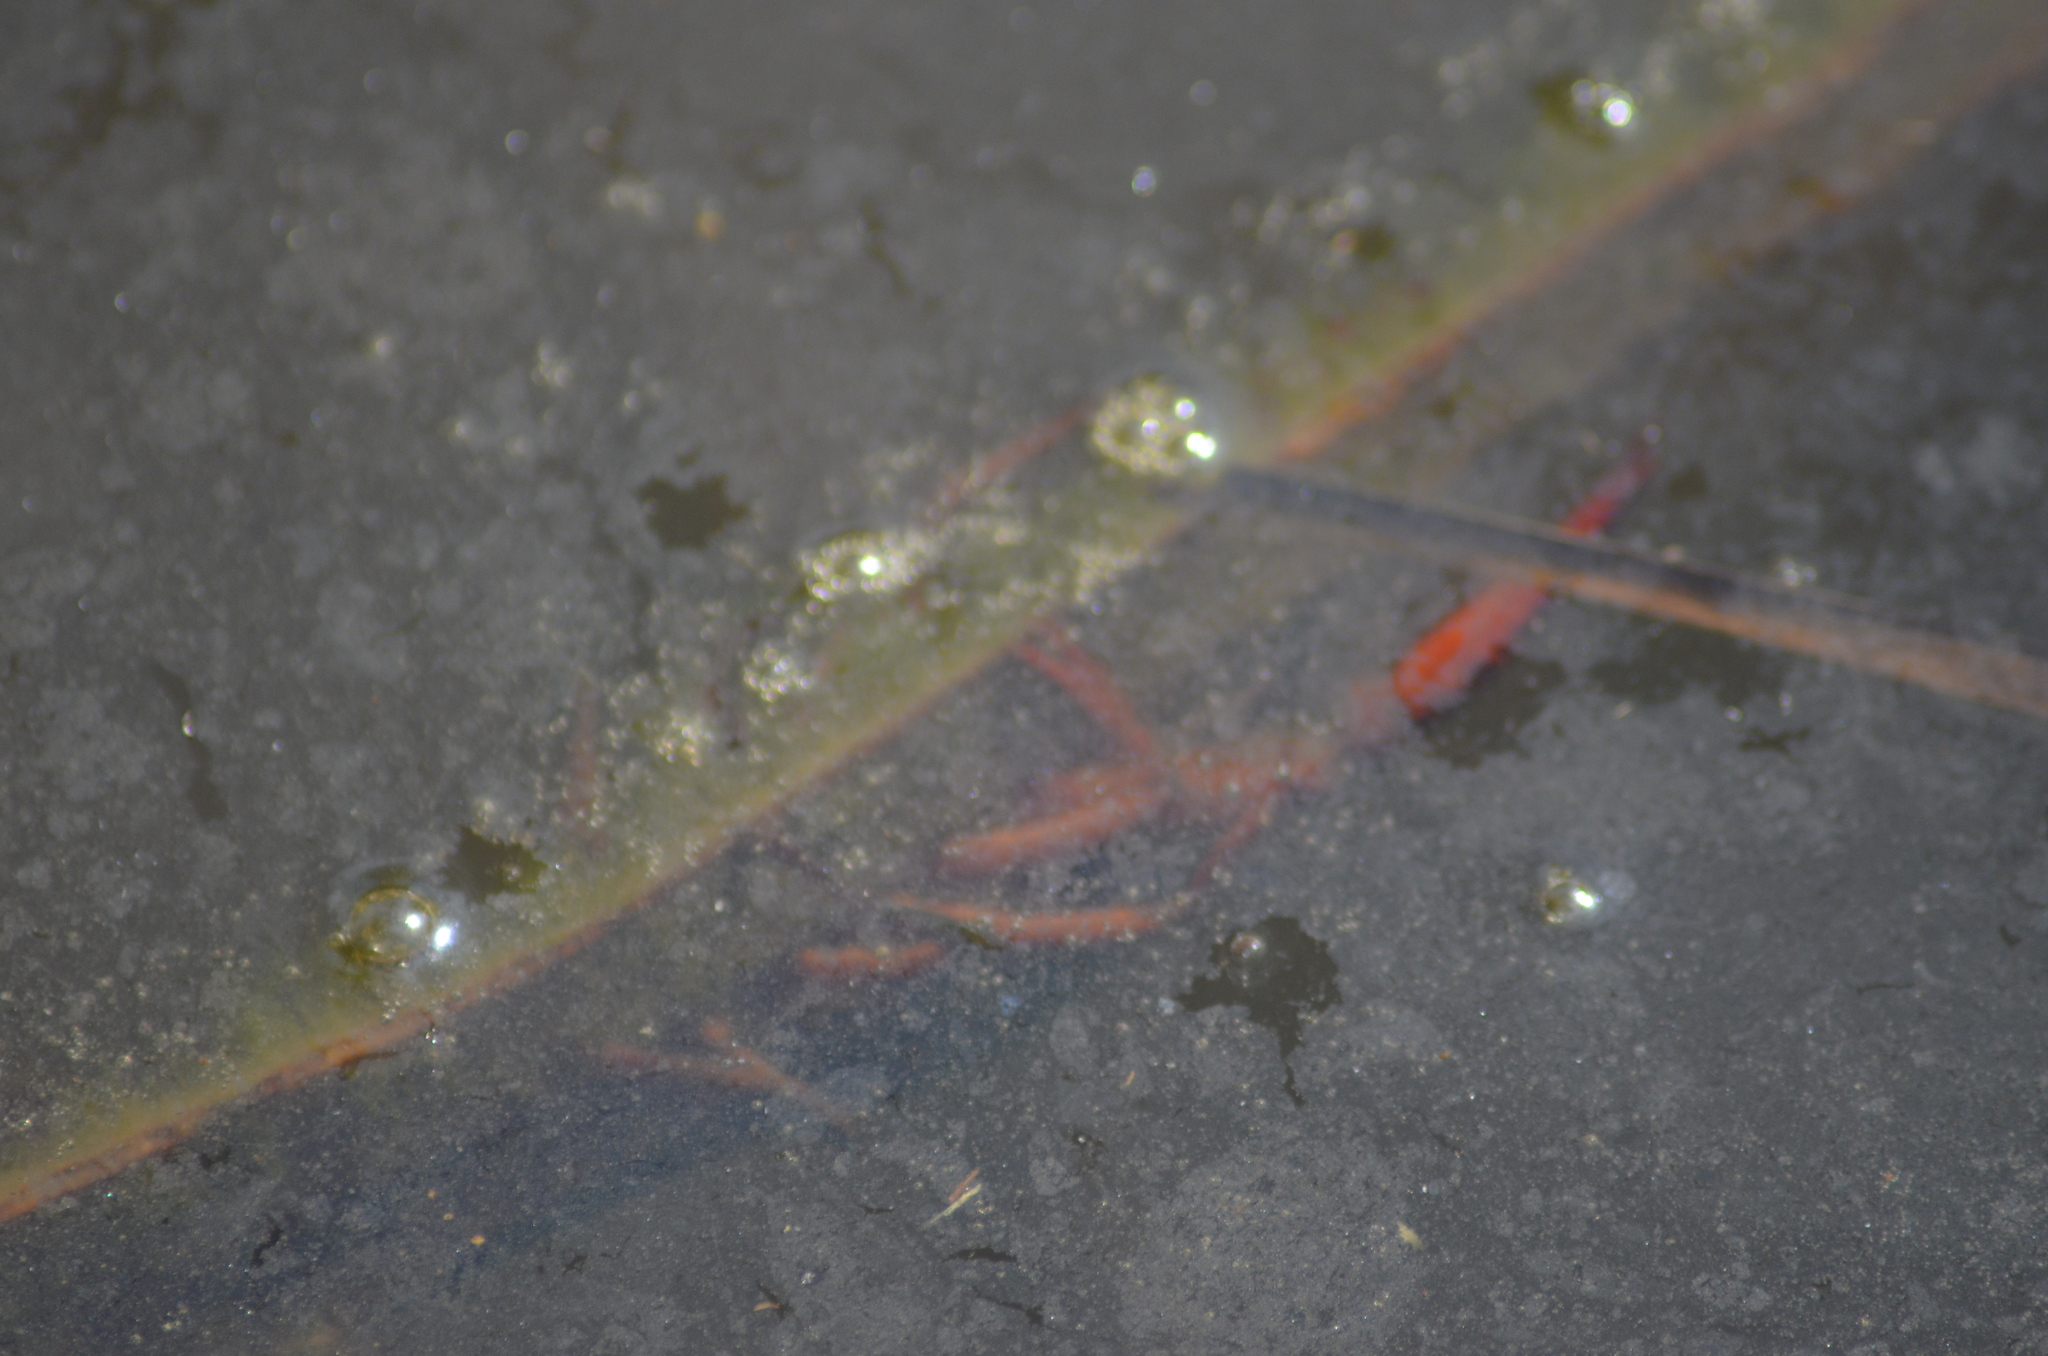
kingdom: Animalia
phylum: Arthropoda
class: Malacostraca
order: Decapoda
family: Cambaridae
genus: Procambarus
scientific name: Procambarus clarkii
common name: Red swamp crayfish
